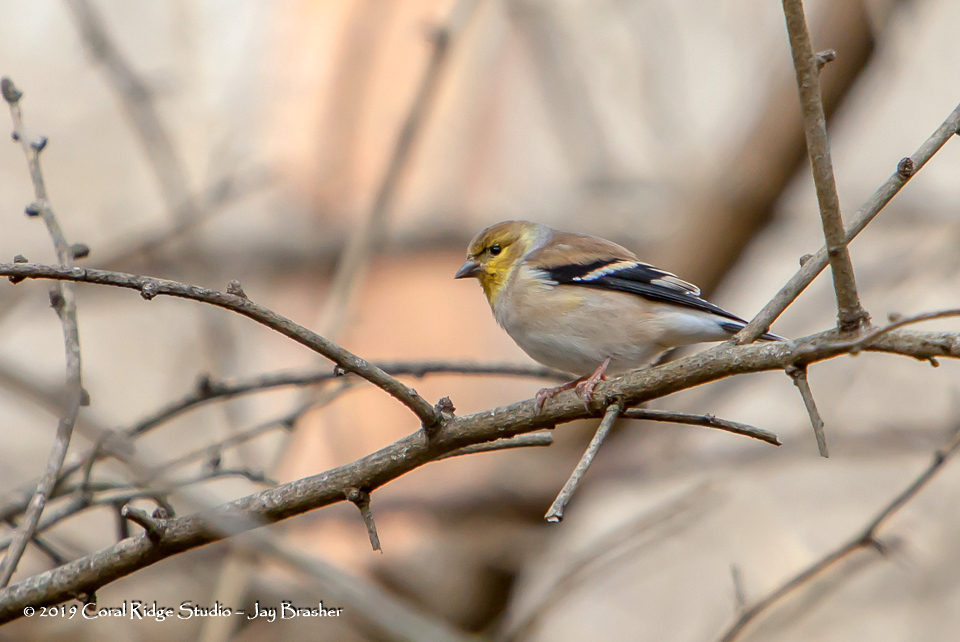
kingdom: Animalia
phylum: Chordata
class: Aves
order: Passeriformes
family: Fringillidae
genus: Spinus
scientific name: Spinus tristis
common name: American goldfinch
